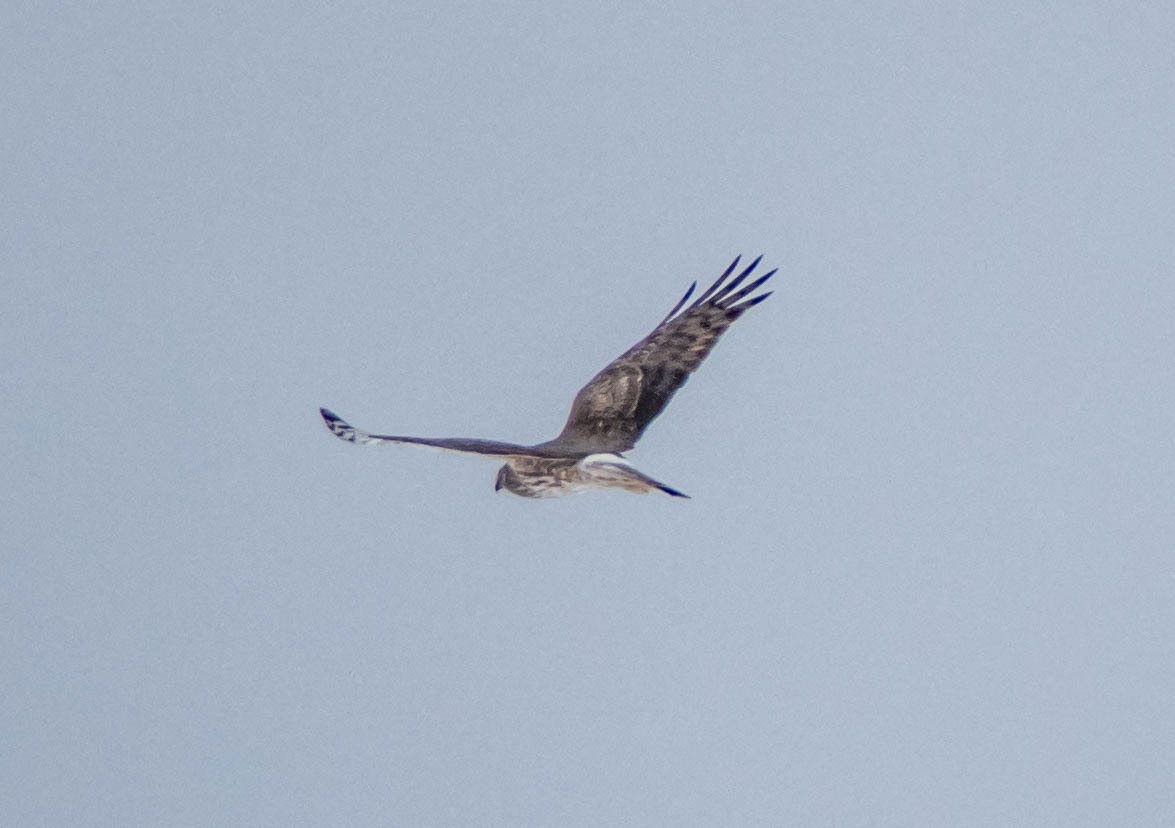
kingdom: Animalia
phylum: Chordata
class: Aves
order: Accipitriformes
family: Accipitridae
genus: Circus
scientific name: Circus cyaneus
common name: Hen harrier
